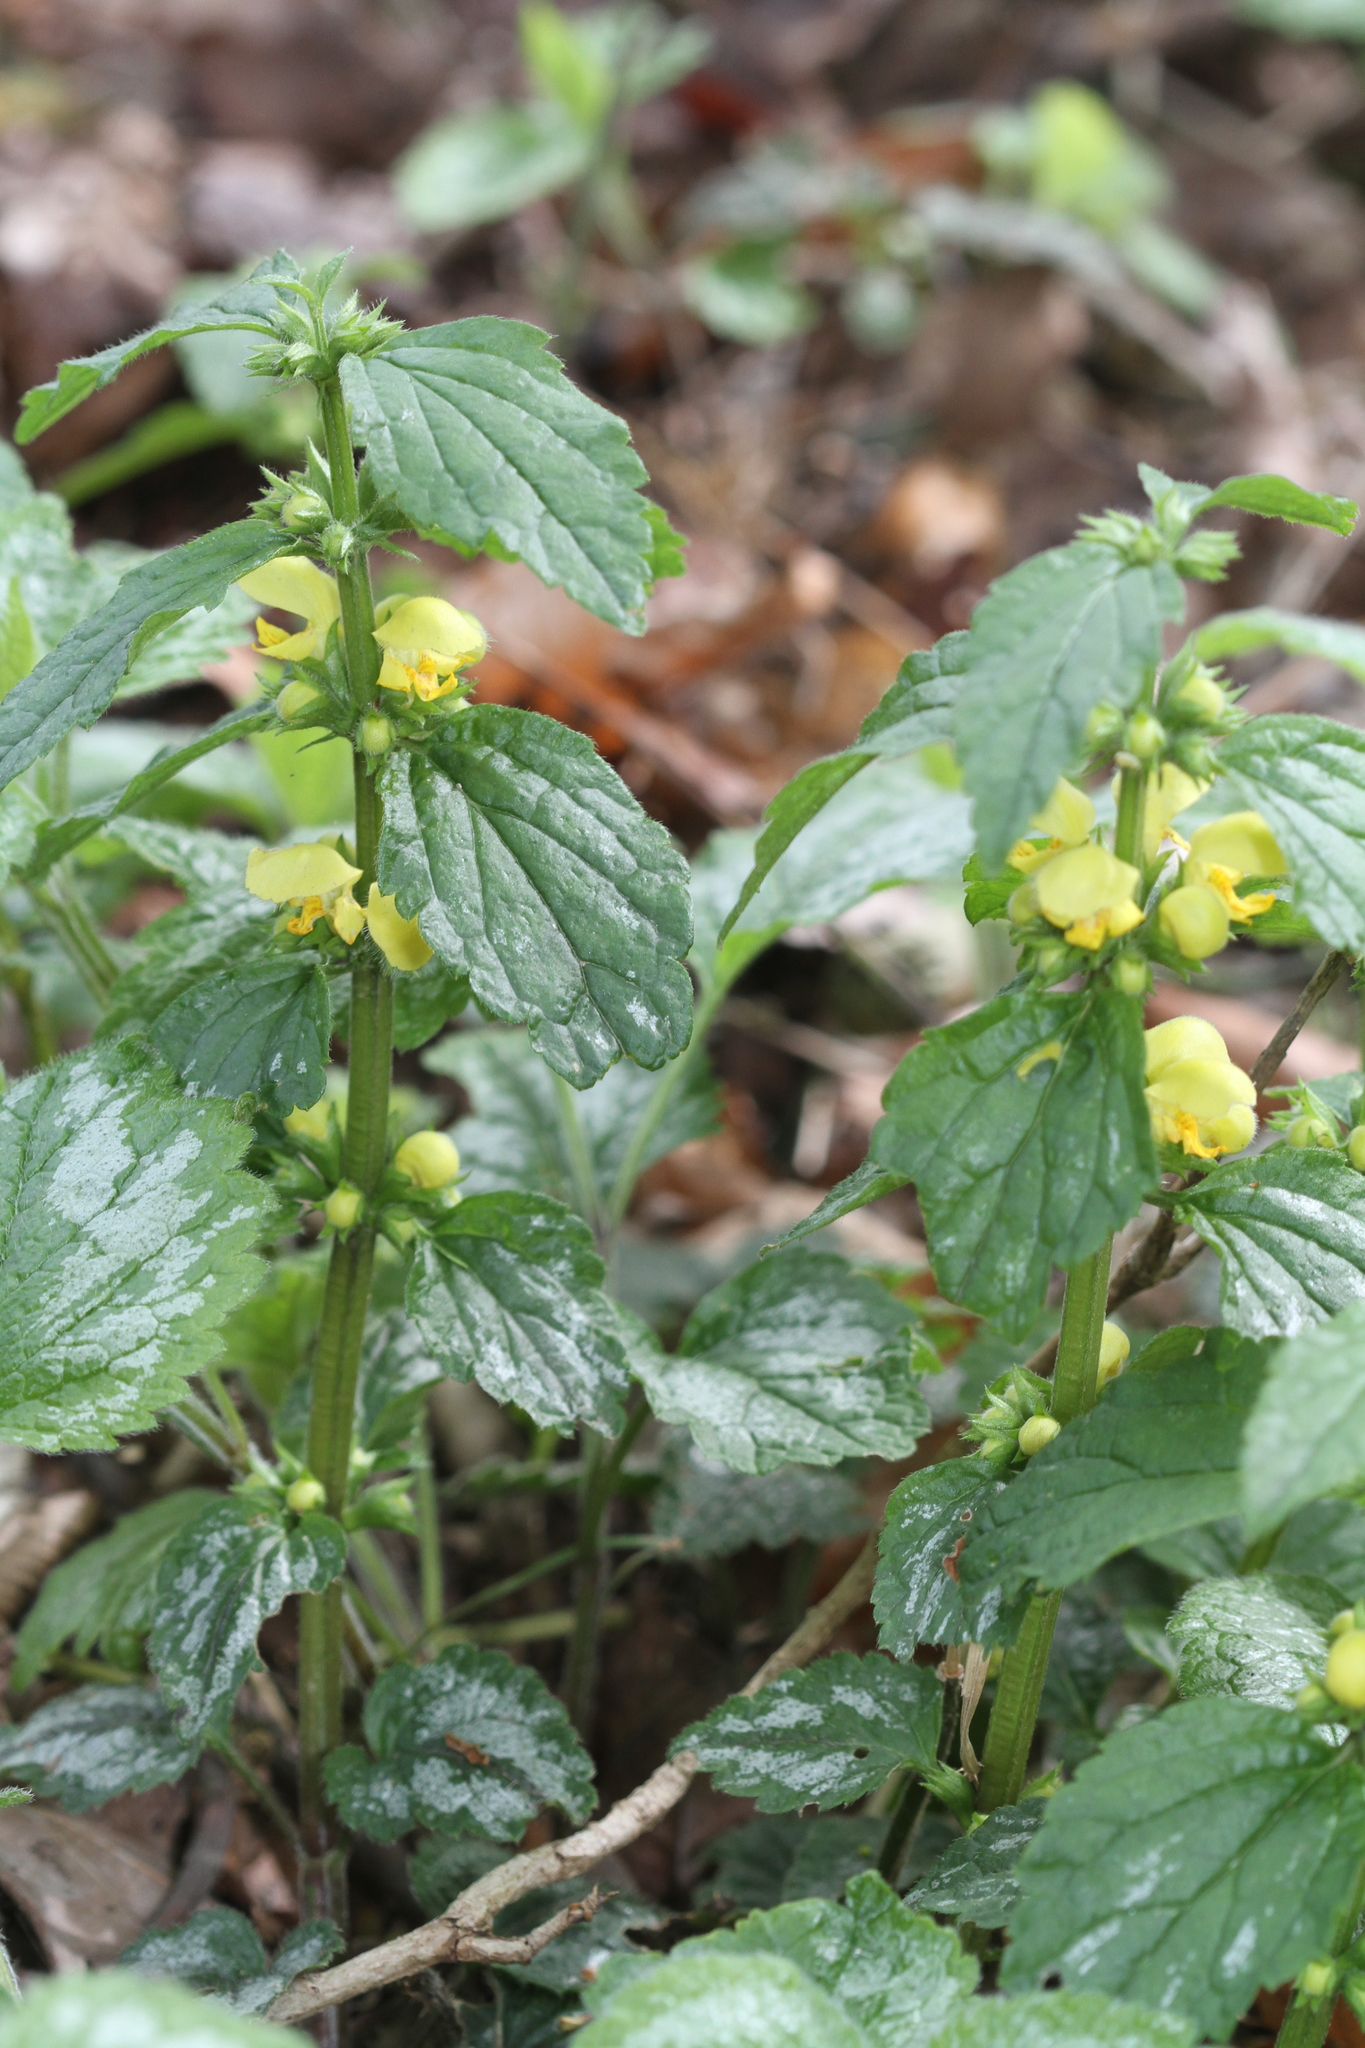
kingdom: Plantae
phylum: Tracheophyta
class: Magnoliopsida
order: Lamiales
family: Lamiaceae
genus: Lamium
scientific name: Lamium galeobdolon
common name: Yellow archangel
